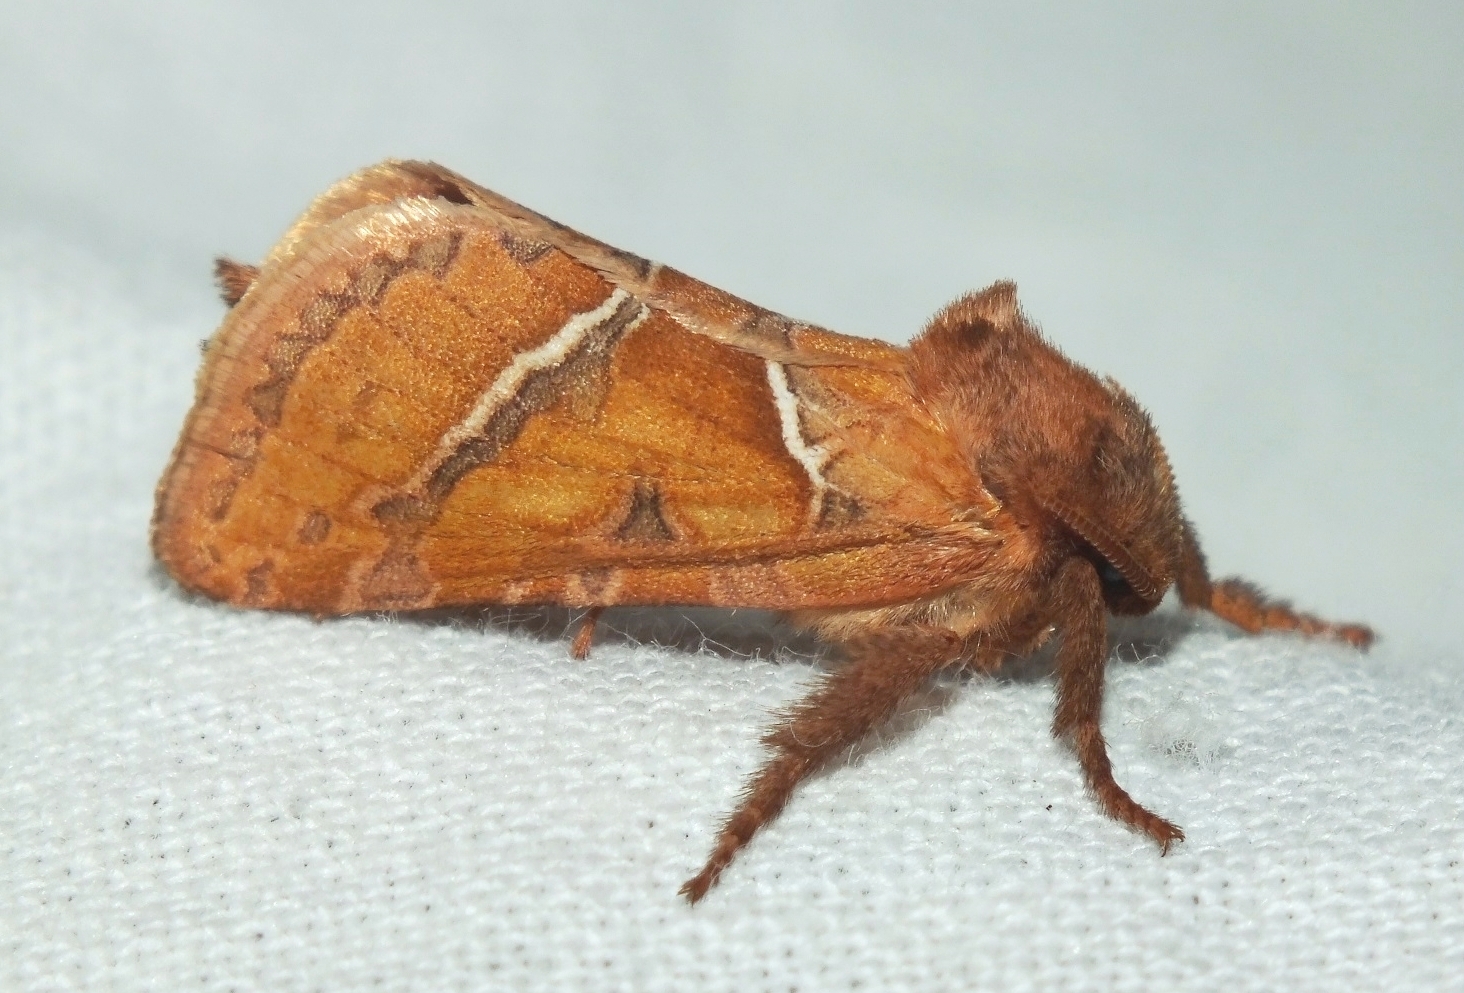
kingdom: Animalia
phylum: Arthropoda
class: Insecta
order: Lepidoptera
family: Hepialidae
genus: Triodia
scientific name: Triodia sylvina
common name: Orange swift
